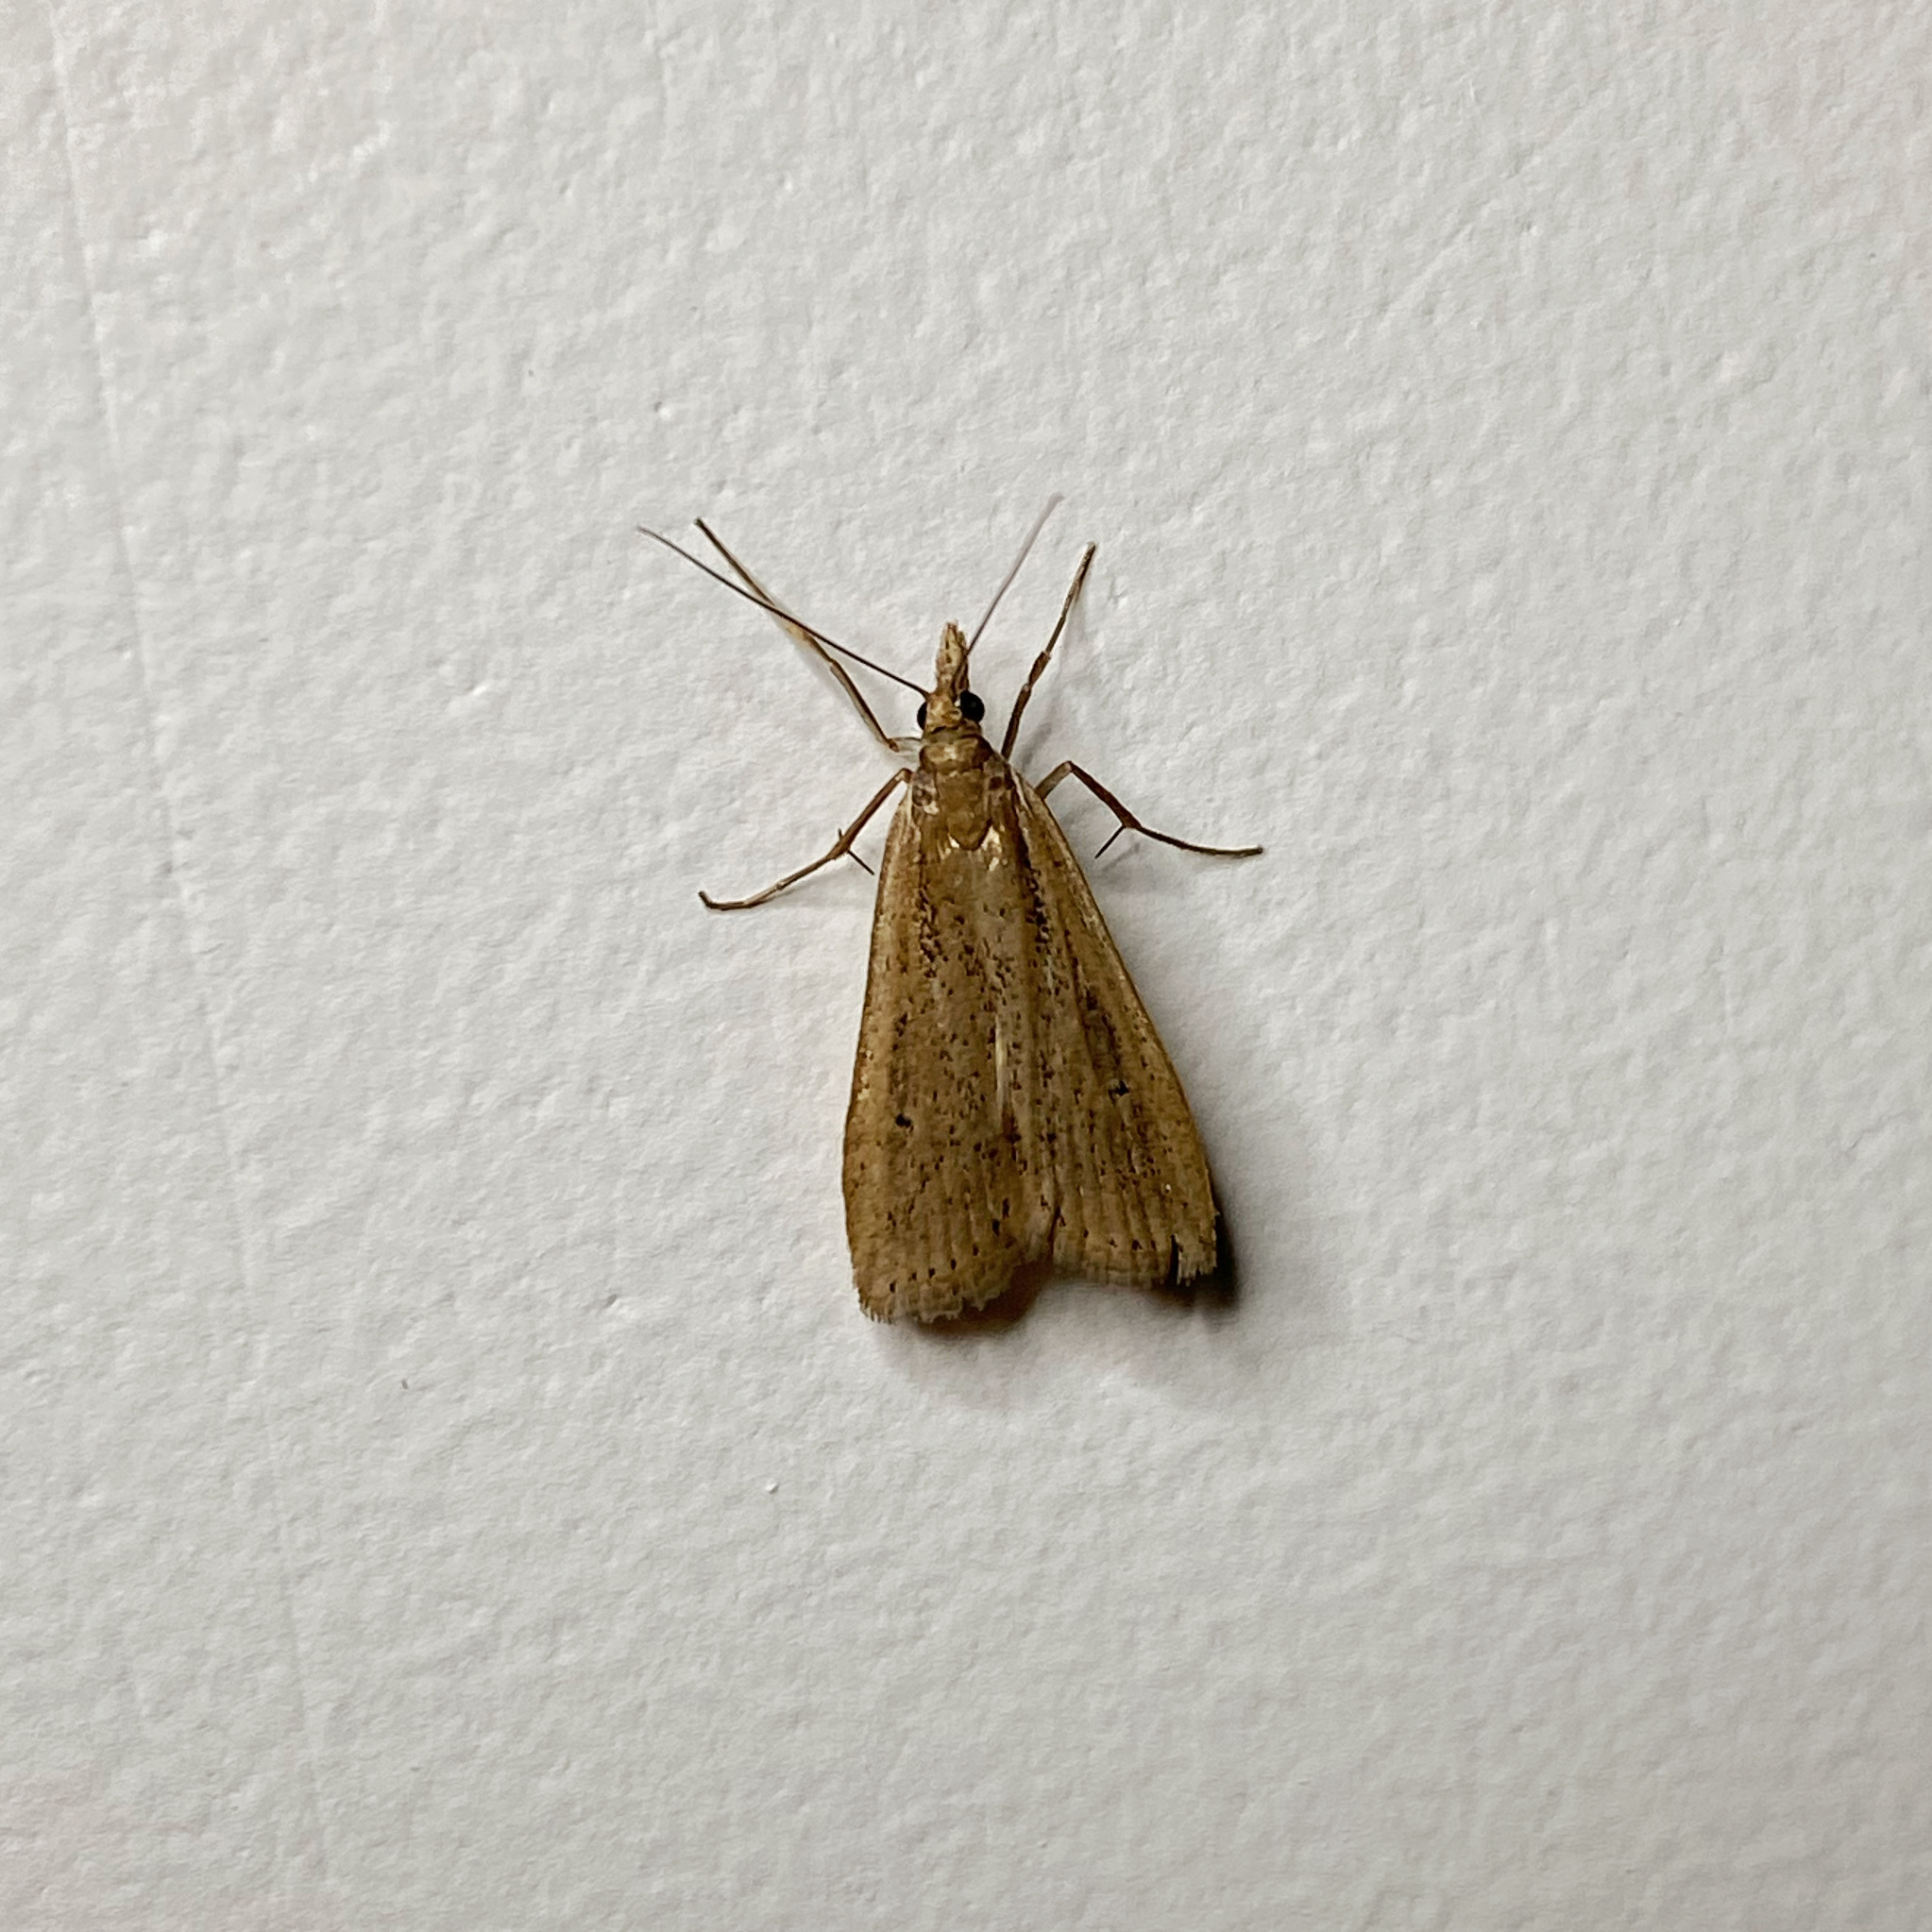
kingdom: Animalia
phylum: Arthropoda
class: Insecta
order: Lepidoptera
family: Crambidae
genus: Eudonia
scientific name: Eudonia sabulosella
